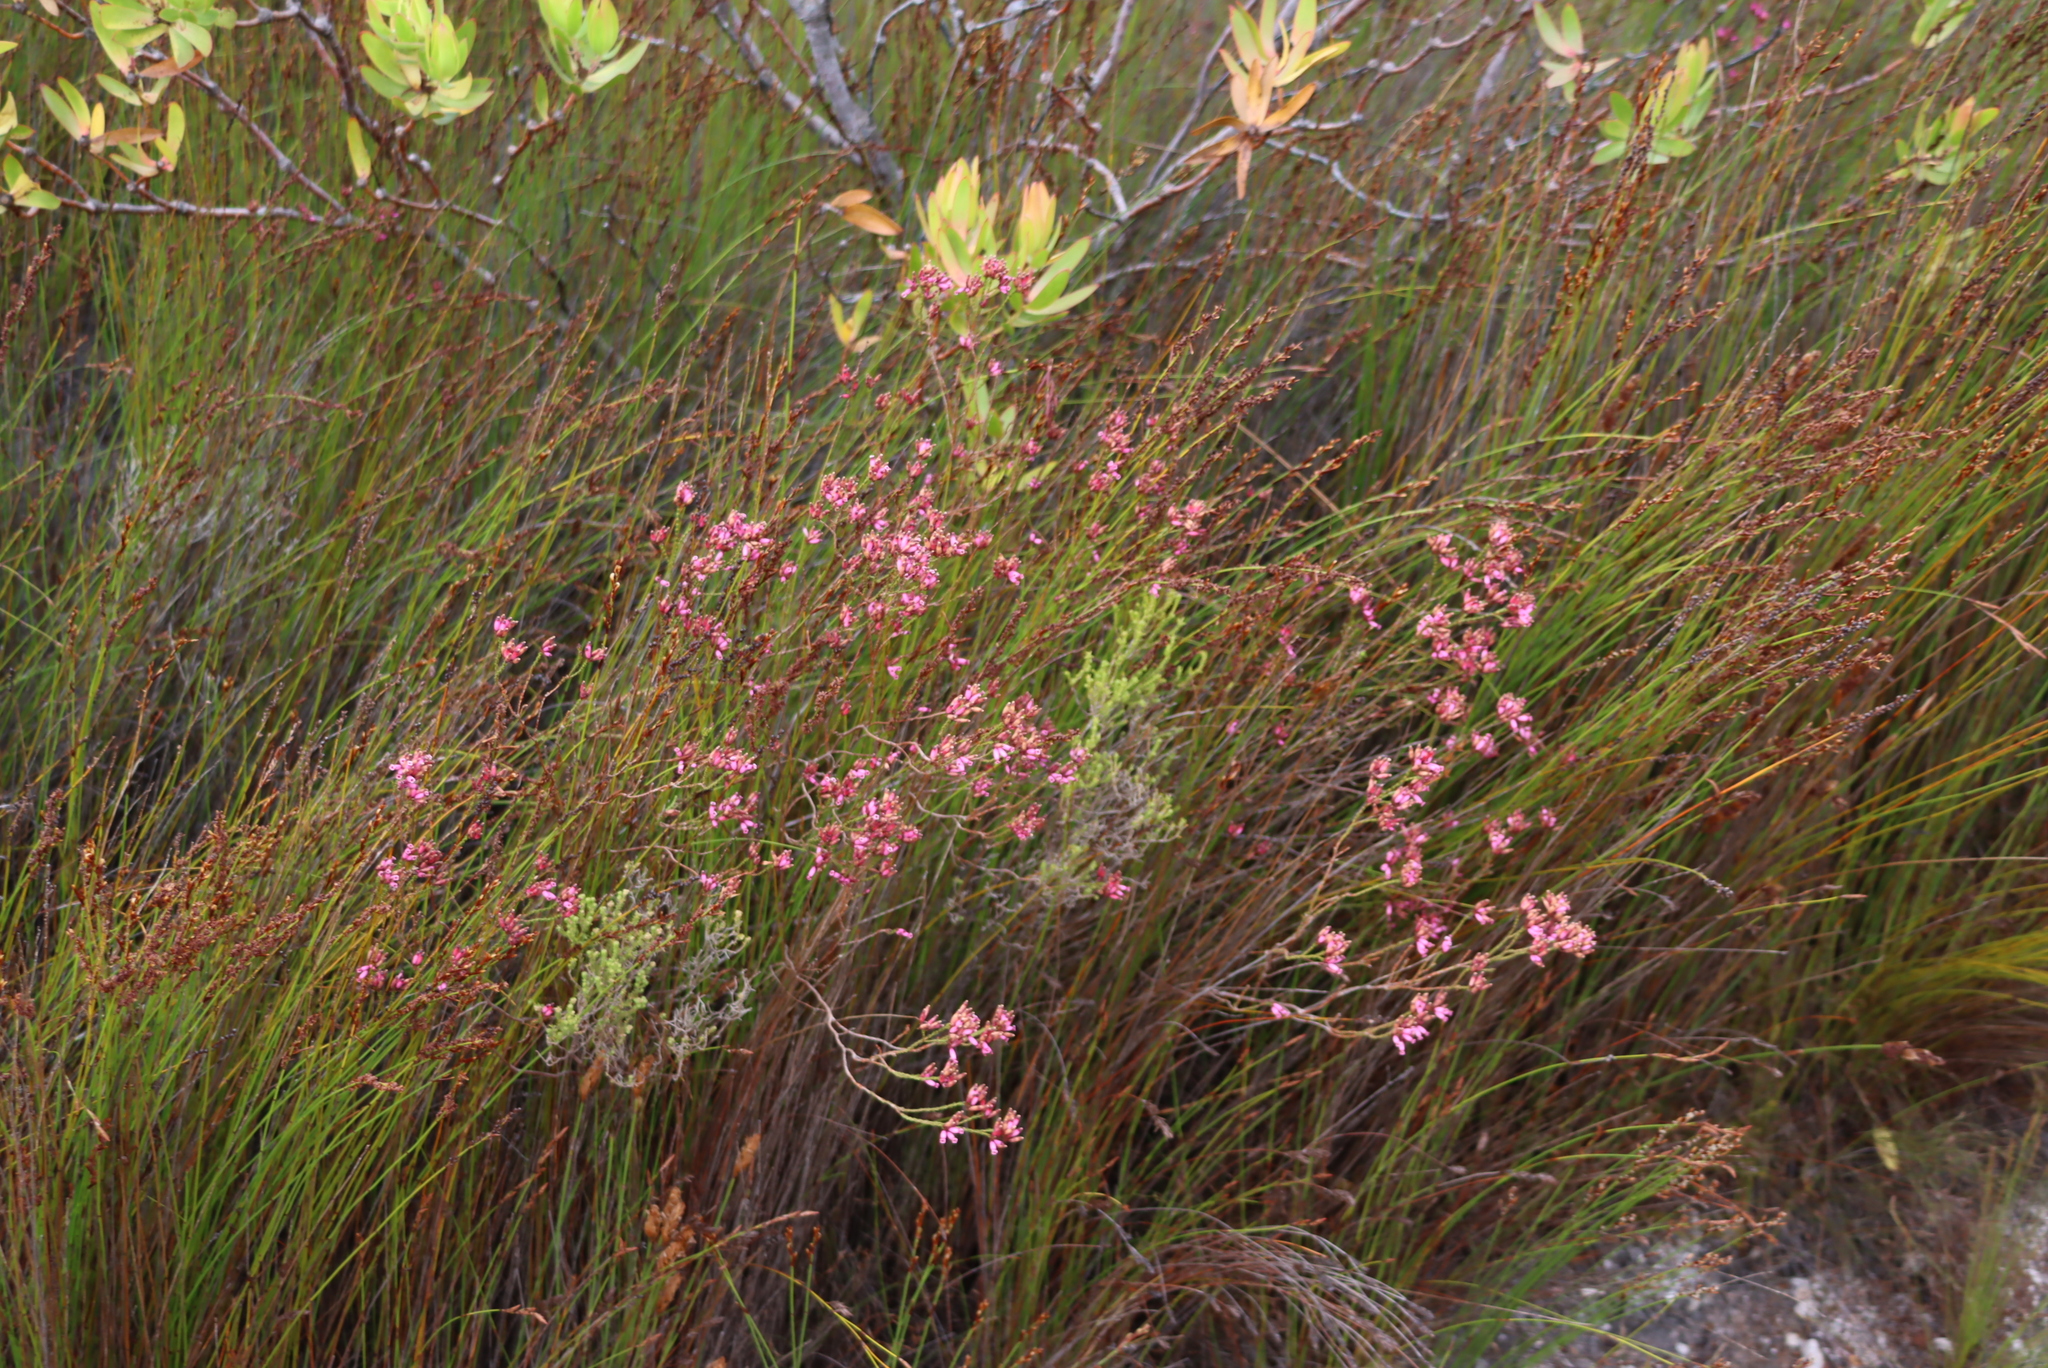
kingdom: Plantae
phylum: Tracheophyta
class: Magnoliopsida
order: Ericales
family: Ericaceae
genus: Erica
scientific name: Erica cristata
